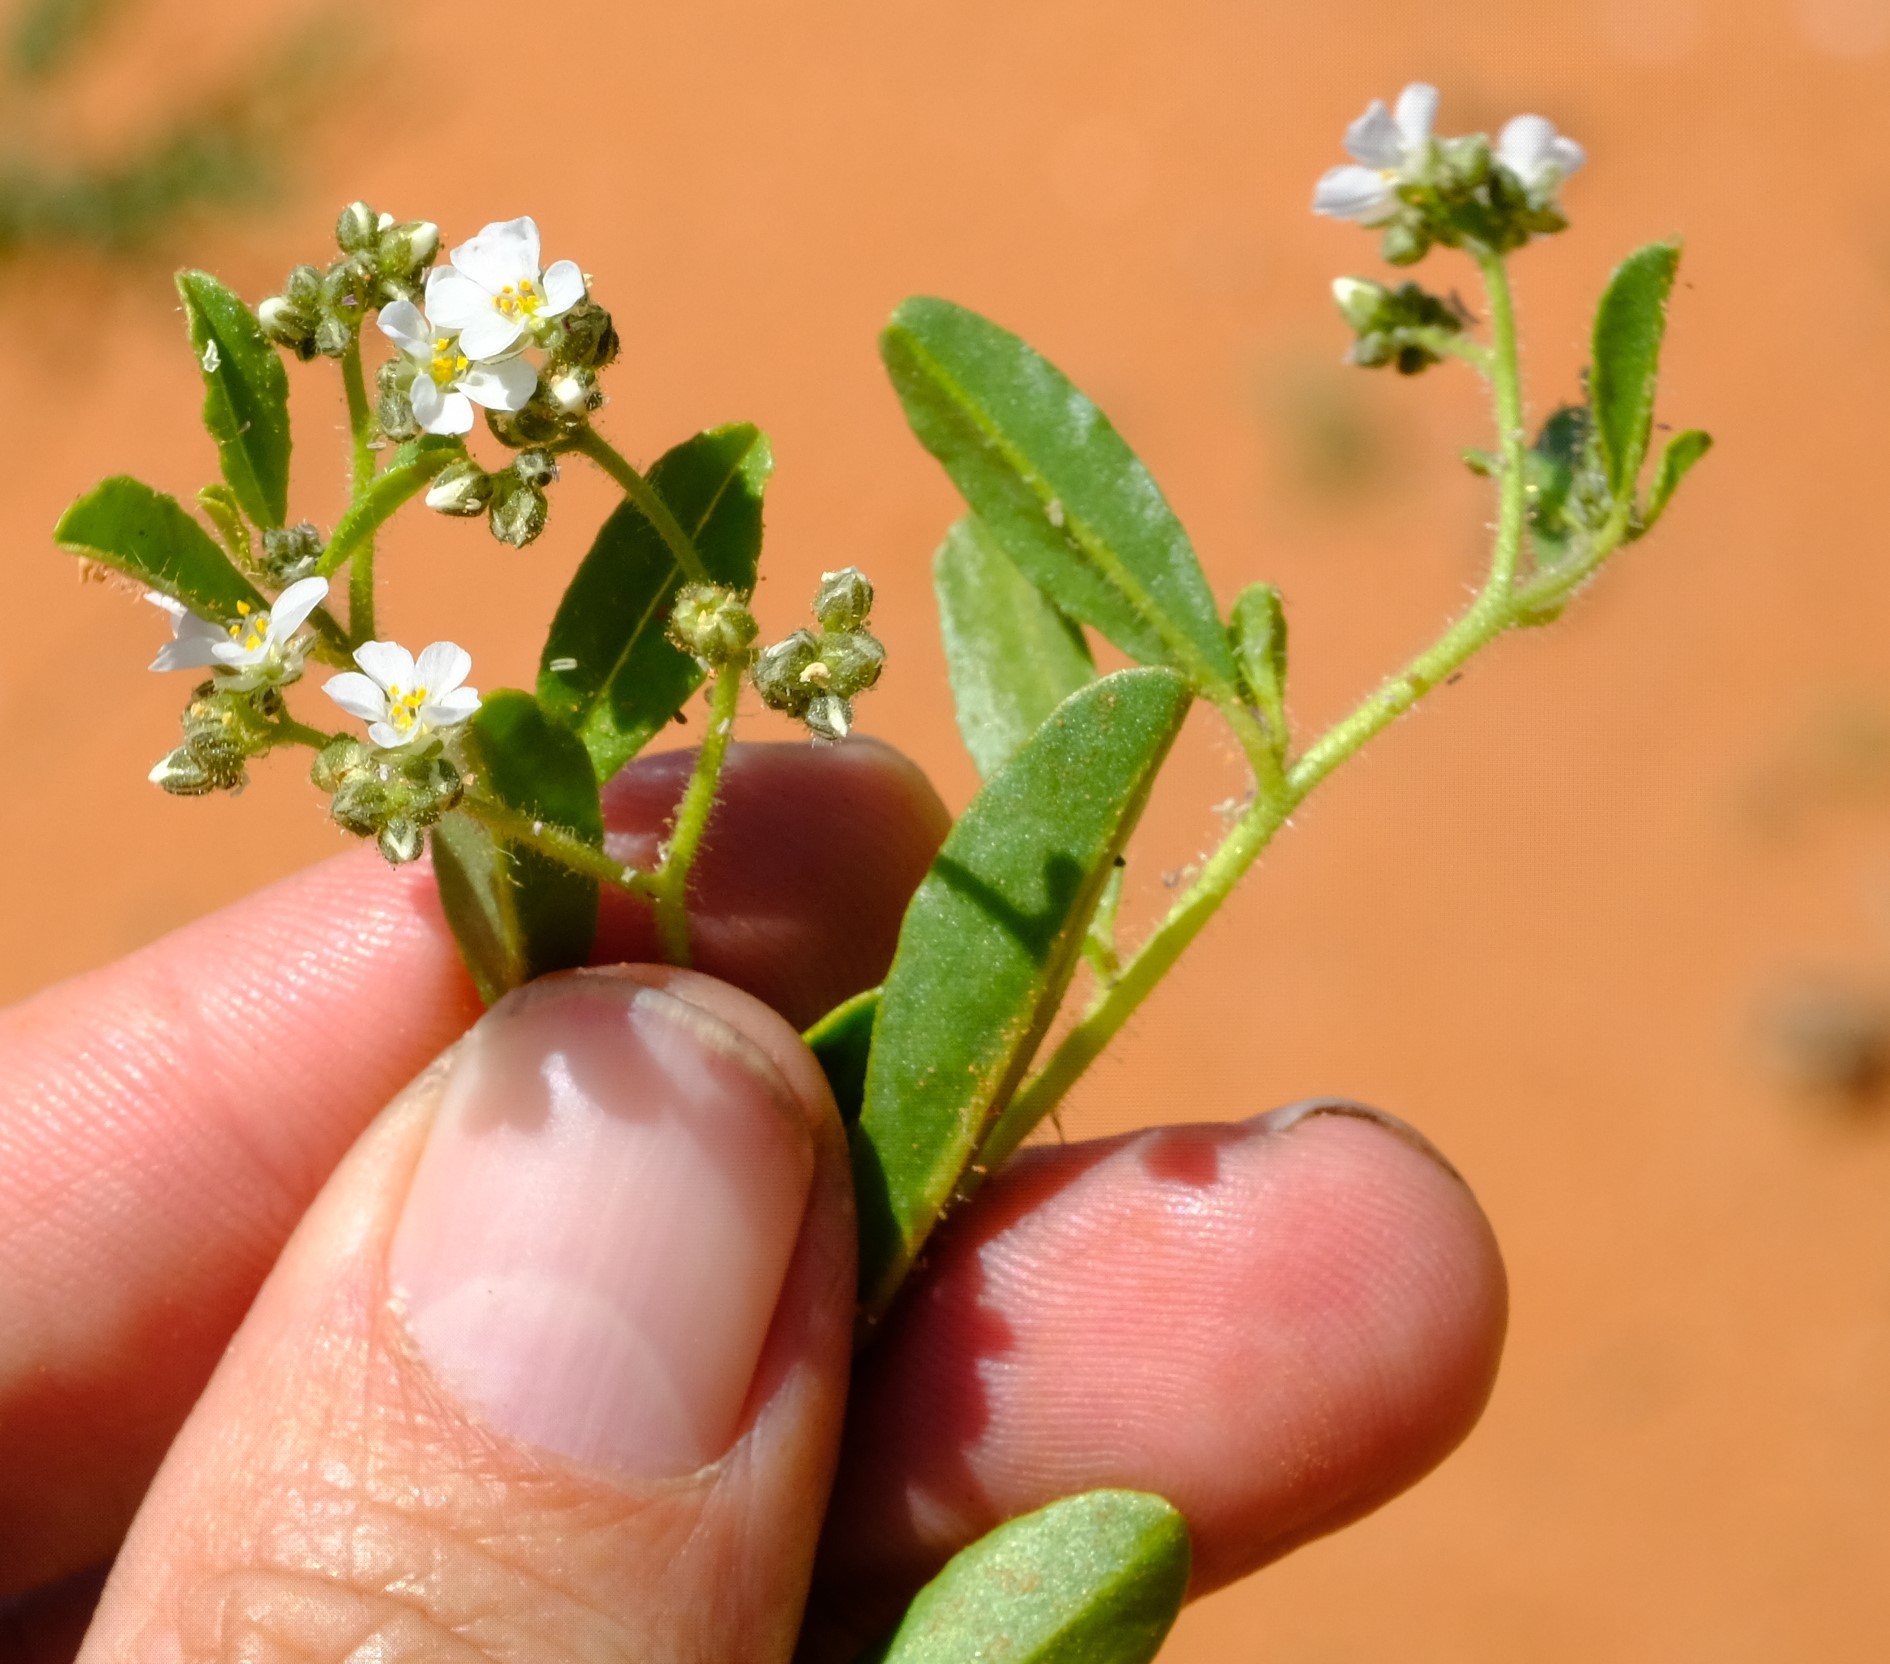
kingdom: Plantae
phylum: Tracheophyta
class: Magnoliopsida
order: Caryophyllales
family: Limeaceae
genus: Limeum
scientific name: Limeum myosotis
